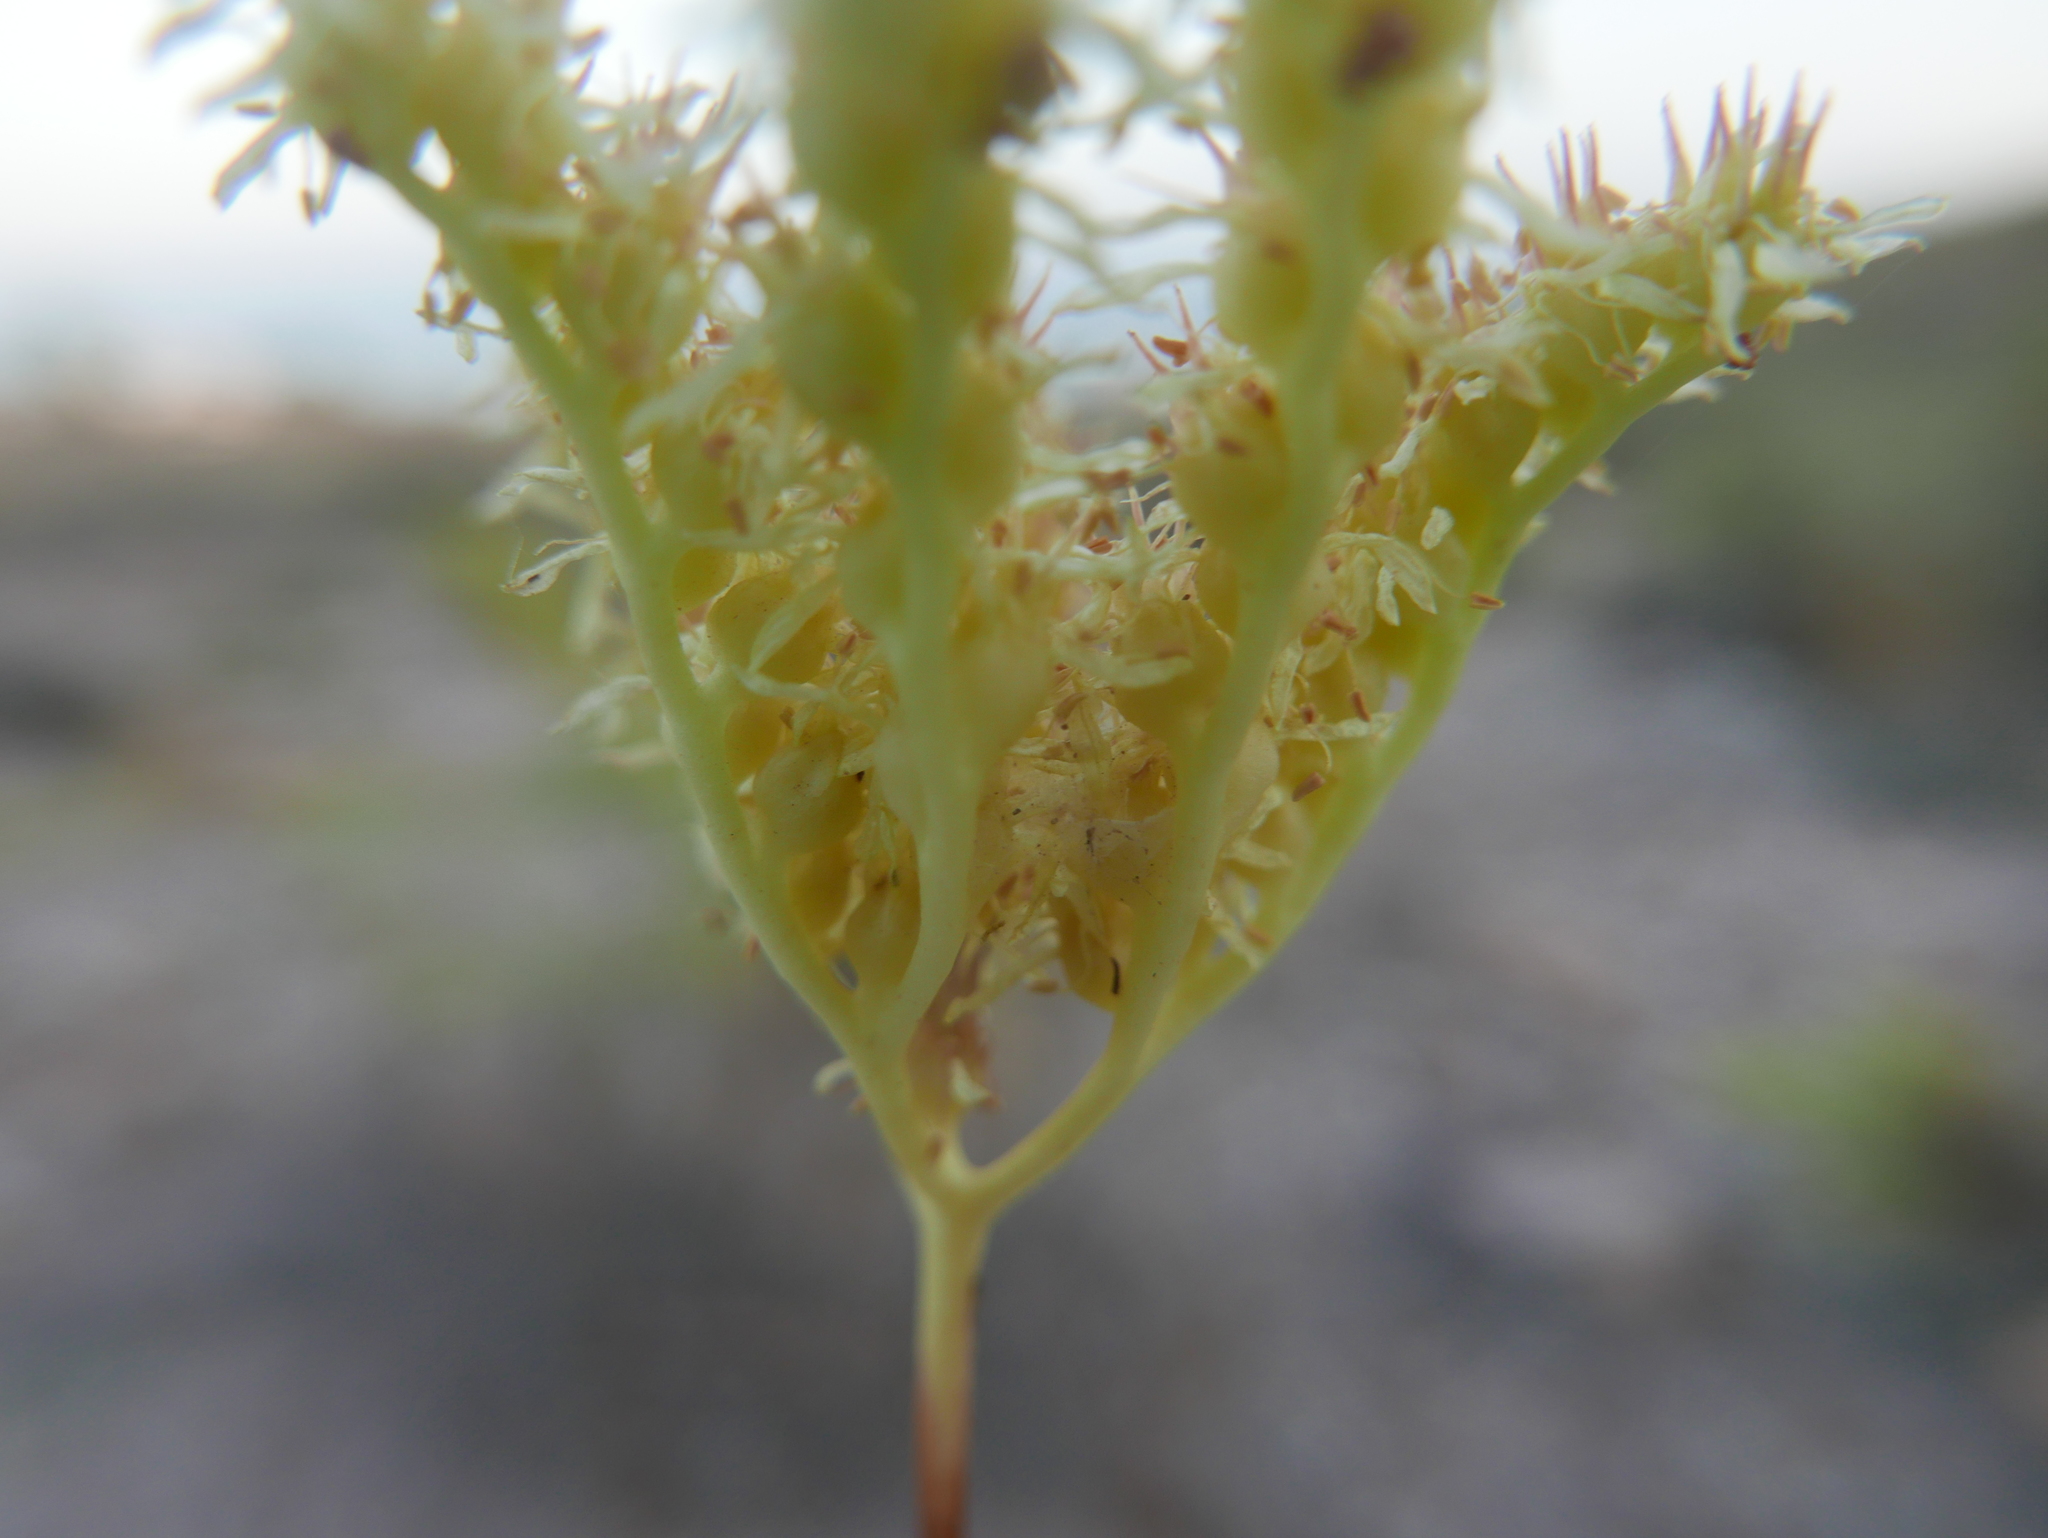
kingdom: Plantae
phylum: Tracheophyta
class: Magnoliopsida
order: Saxifragales
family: Crassulaceae
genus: Petrosedum
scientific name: Petrosedum sediforme
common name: Pale stonecrop
